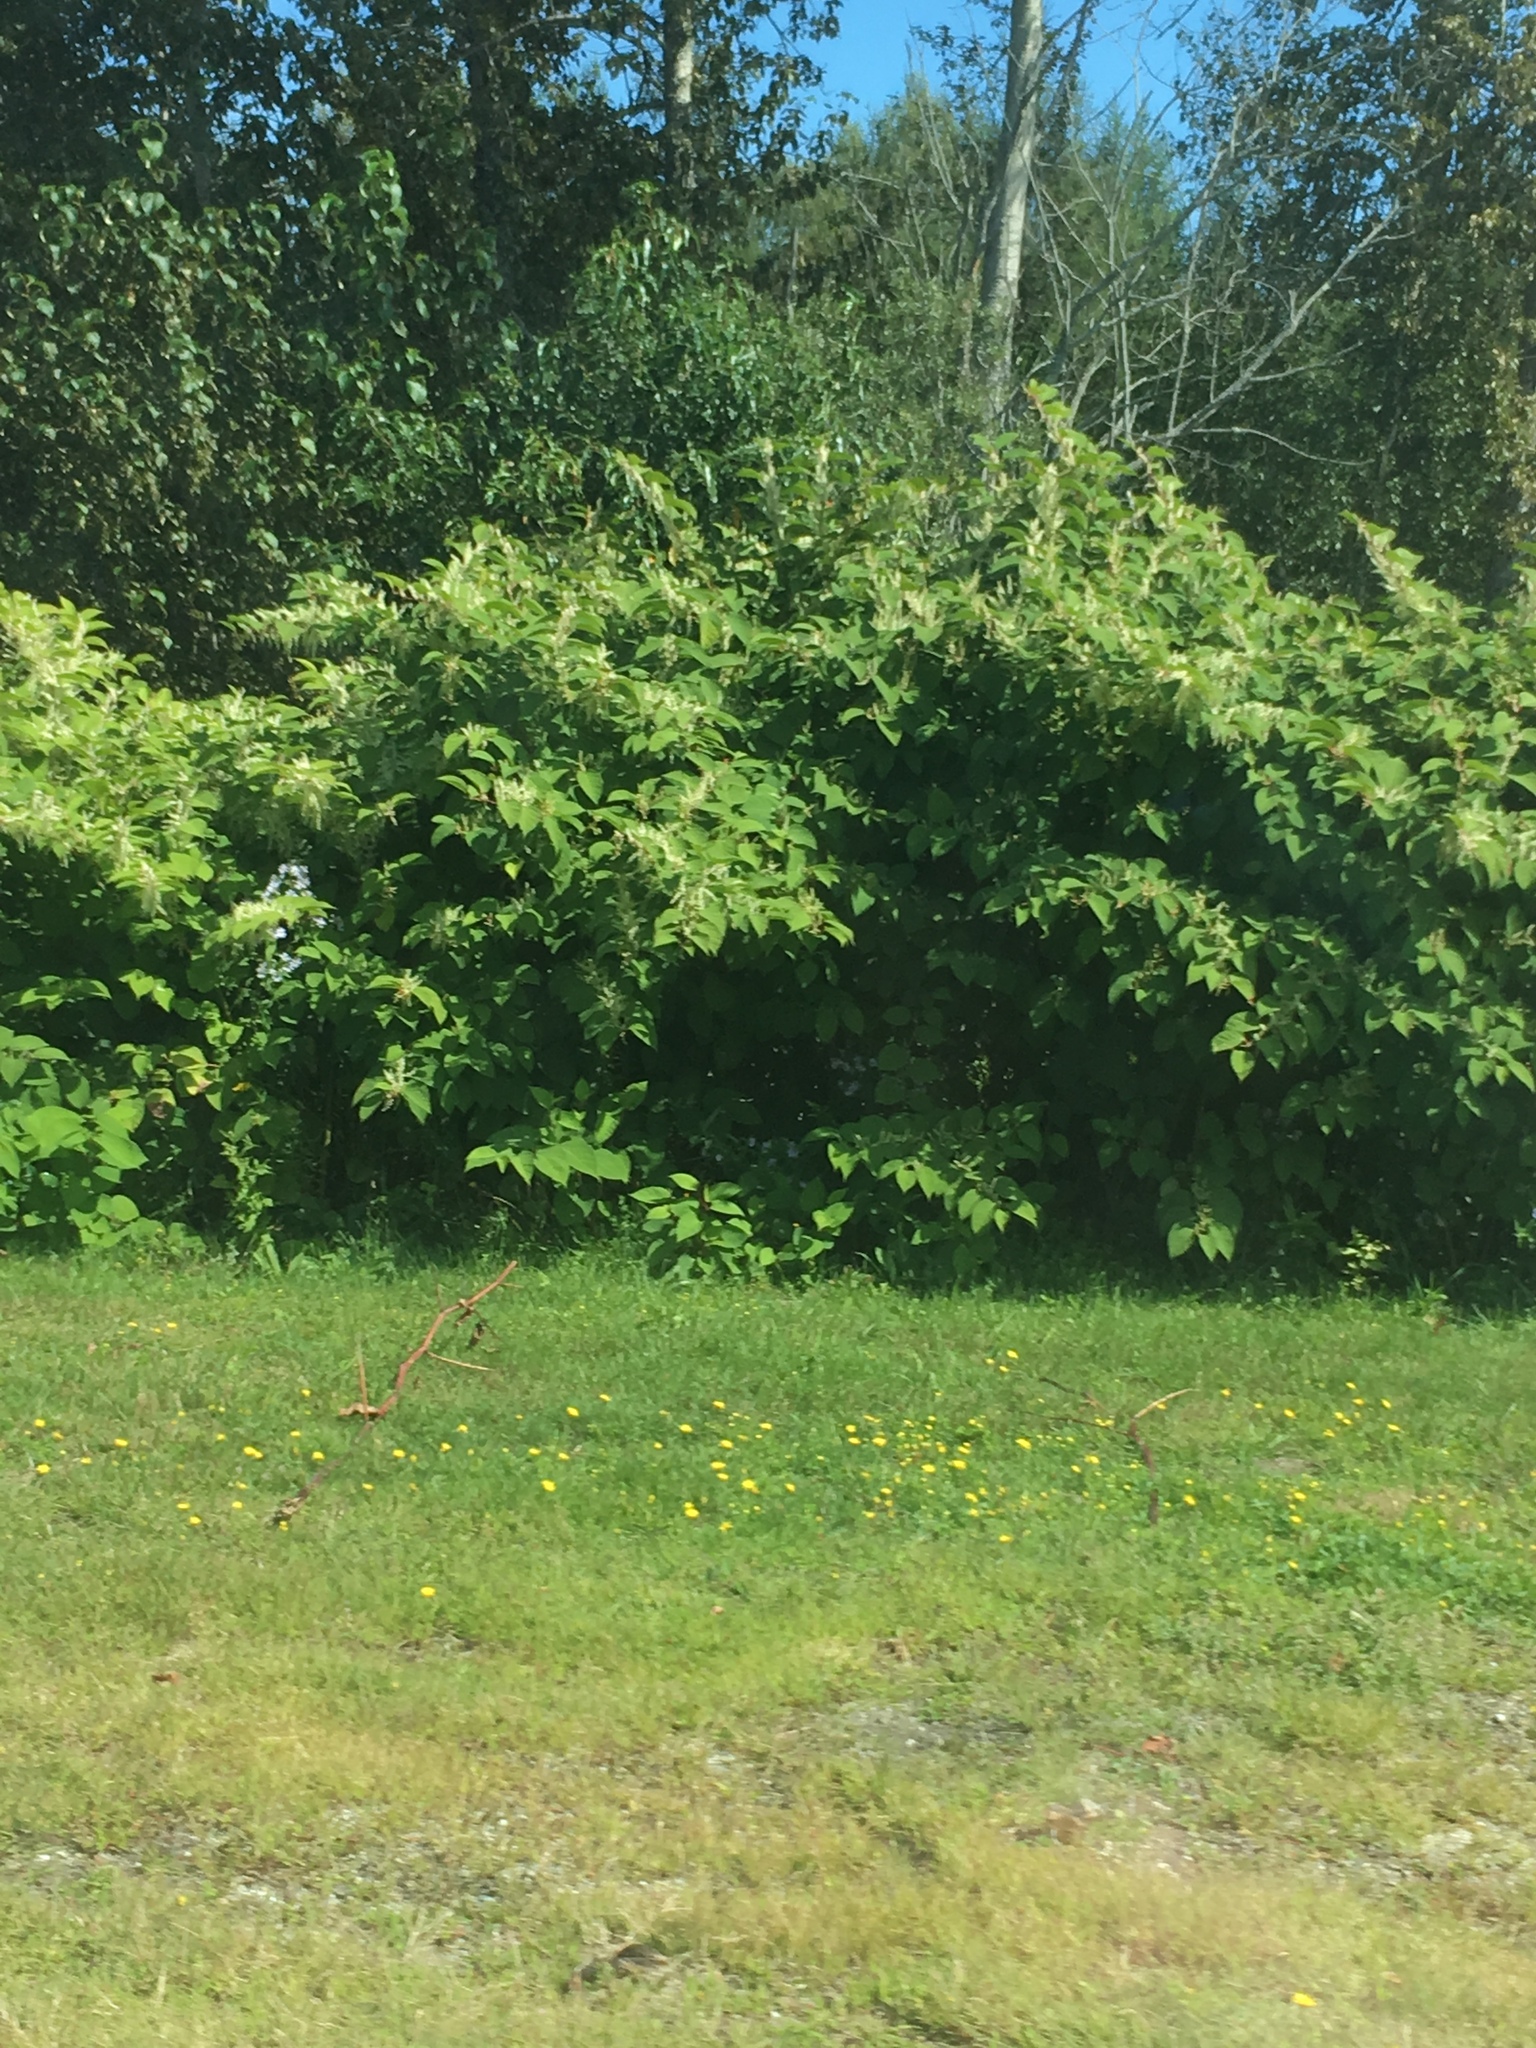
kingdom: Plantae
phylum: Tracheophyta
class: Magnoliopsida
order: Caryophyllales
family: Polygonaceae
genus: Reynoutria
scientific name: Reynoutria japonica
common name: Japanese knotweed
